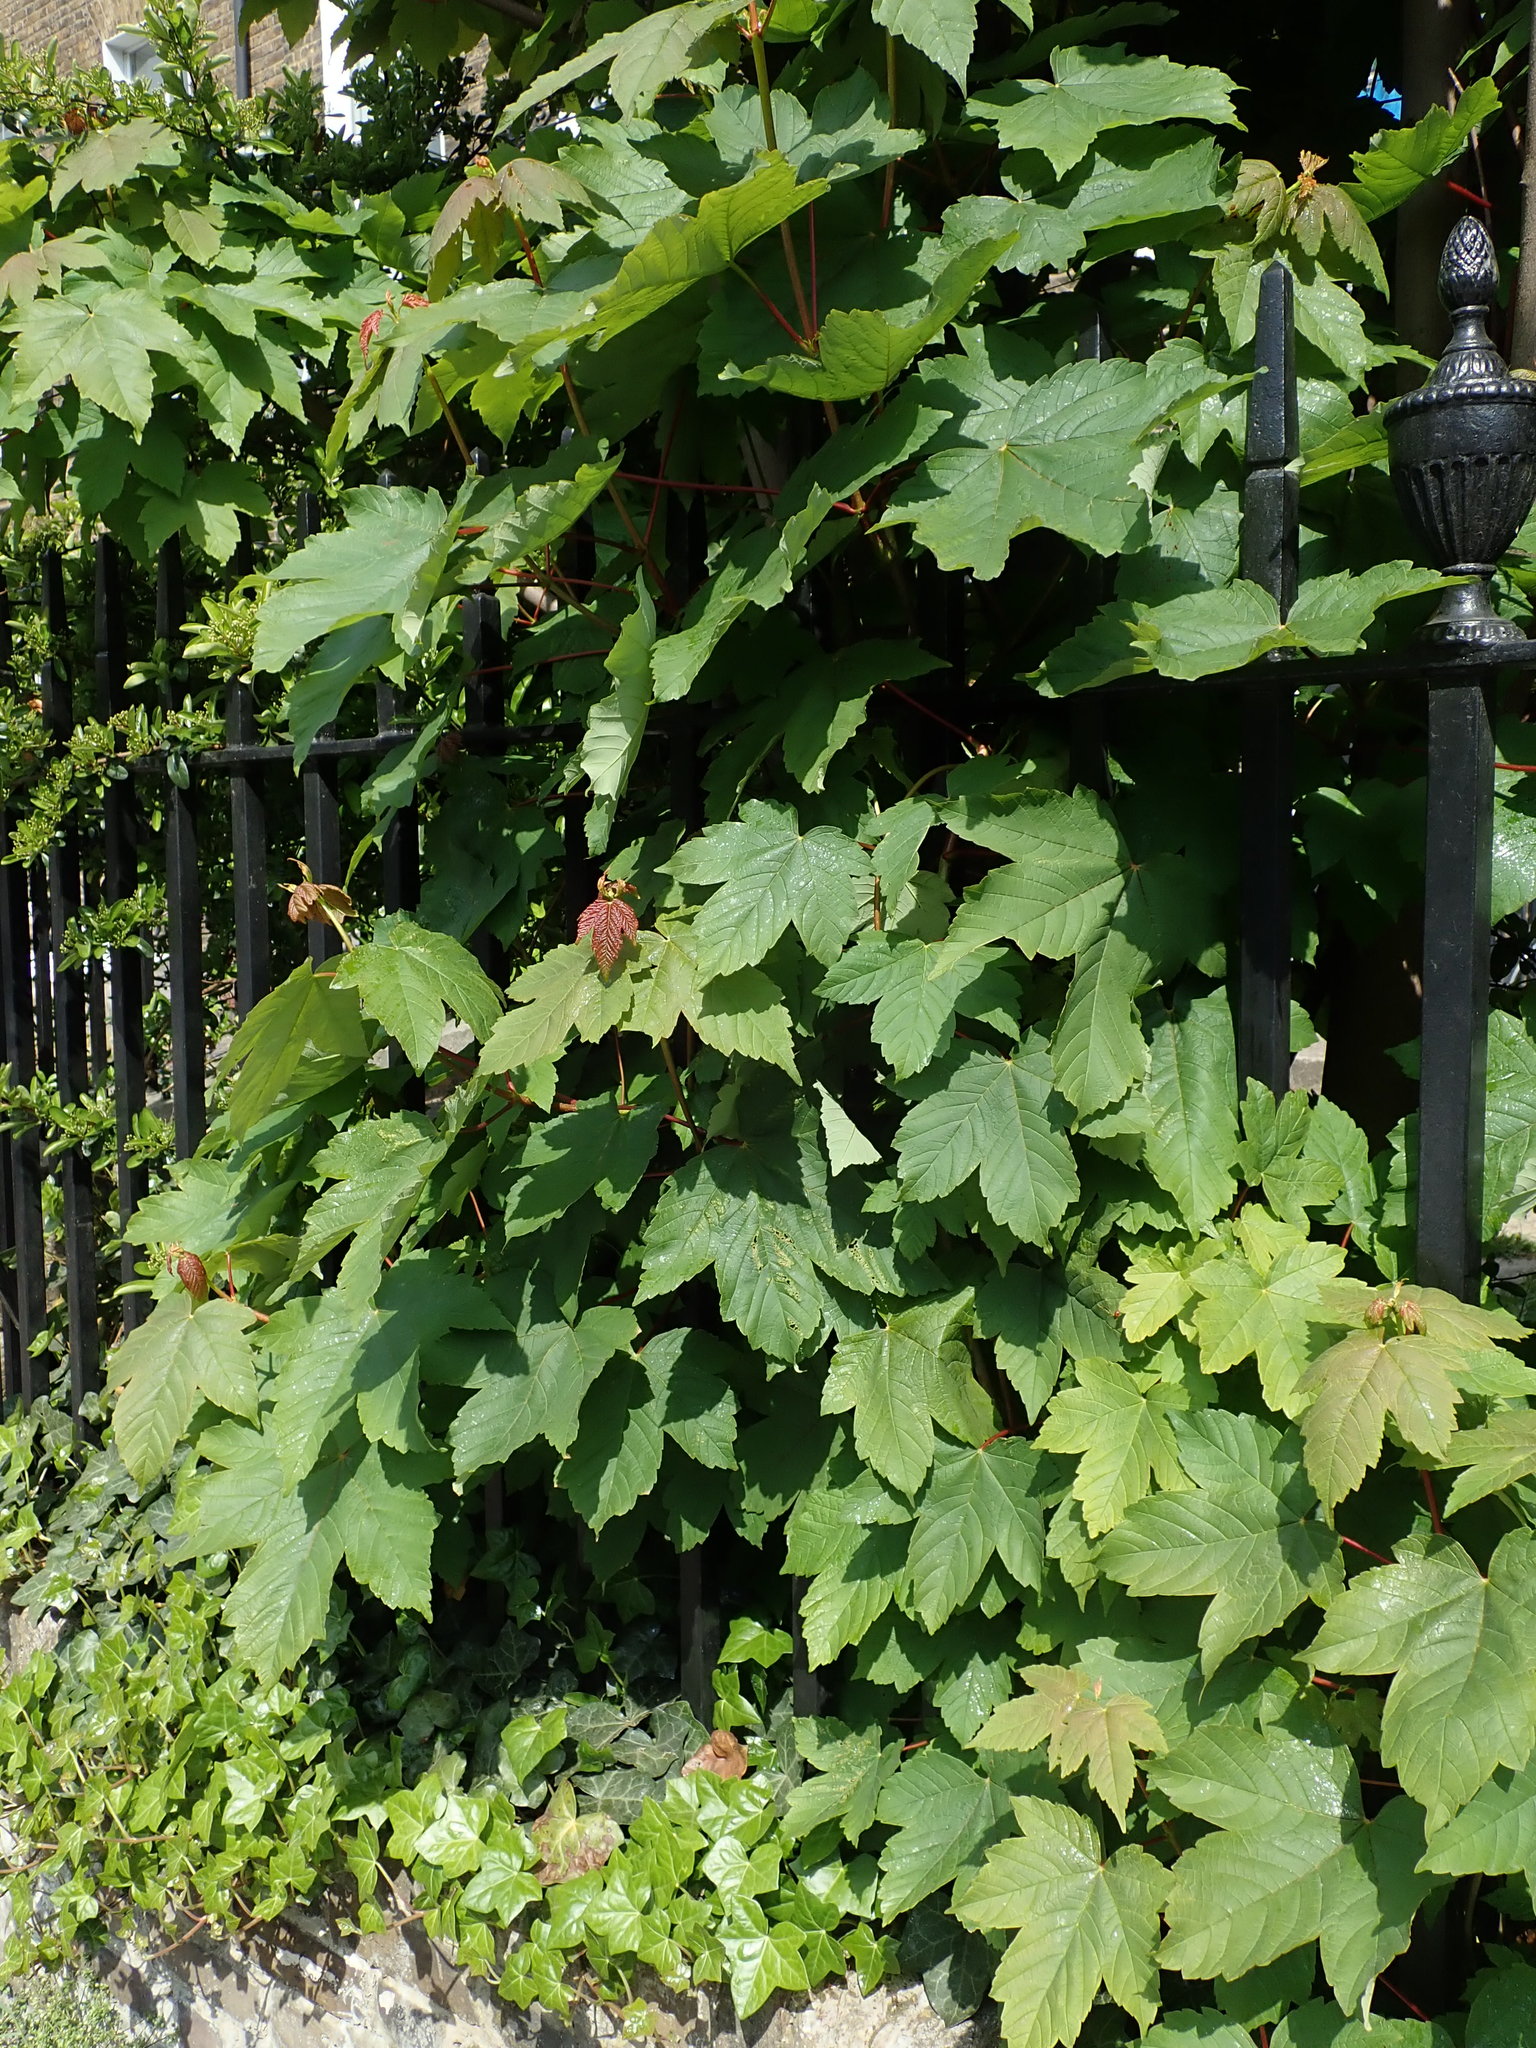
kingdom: Plantae
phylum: Tracheophyta
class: Magnoliopsida
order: Sapindales
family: Sapindaceae
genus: Acer
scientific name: Acer pseudoplatanus
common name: Sycamore
